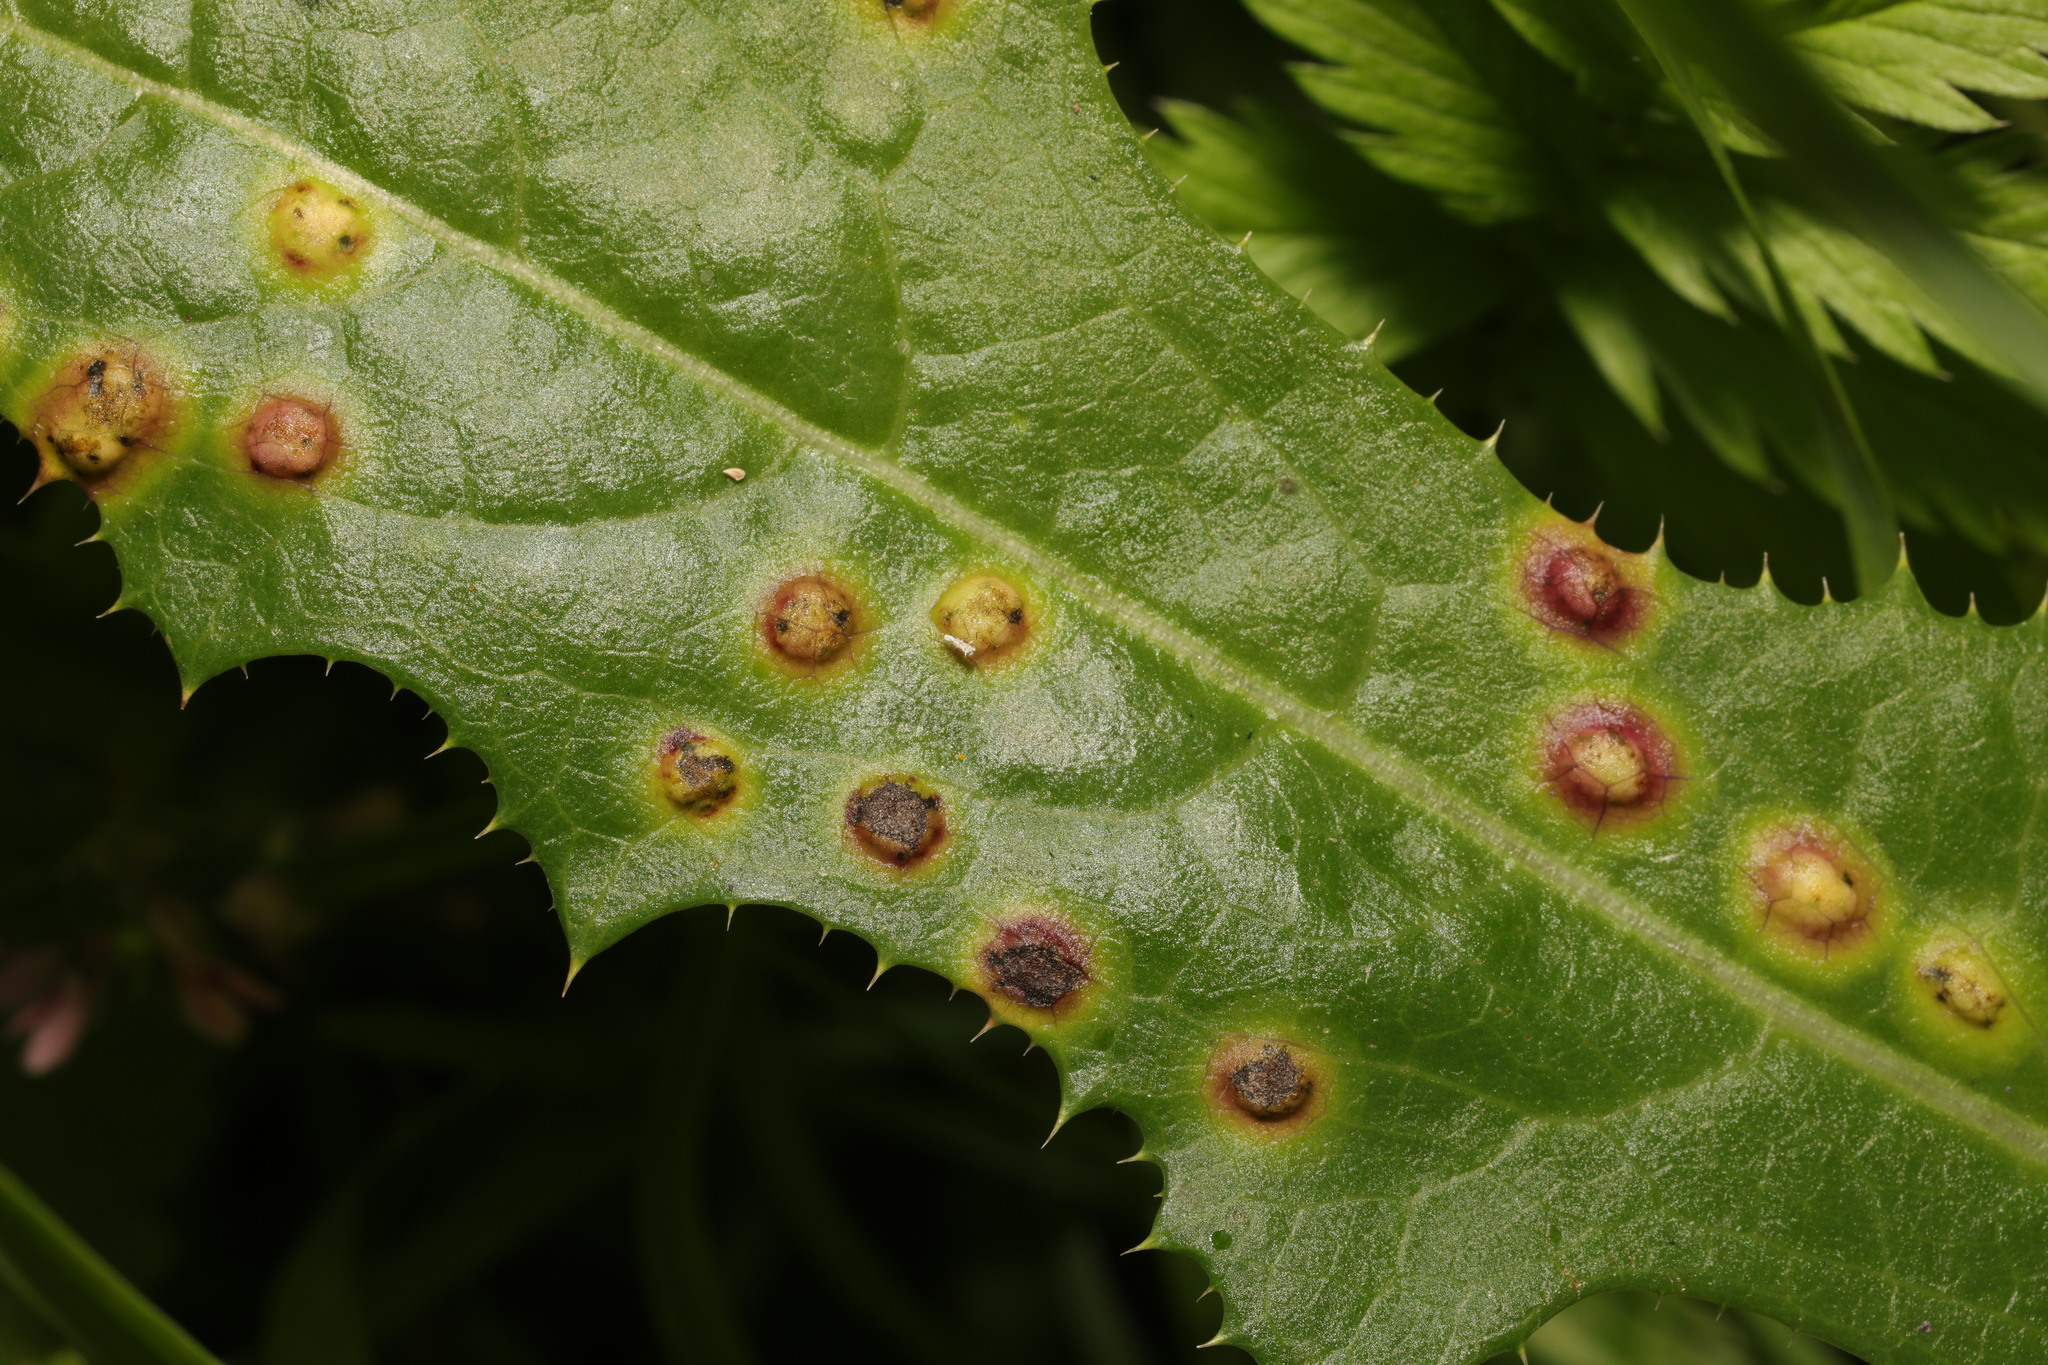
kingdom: Animalia
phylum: Arthropoda
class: Insecta
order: Diptera
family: Cecidomyiidae
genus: Cystiphora
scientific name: Cystiphora sonchi
